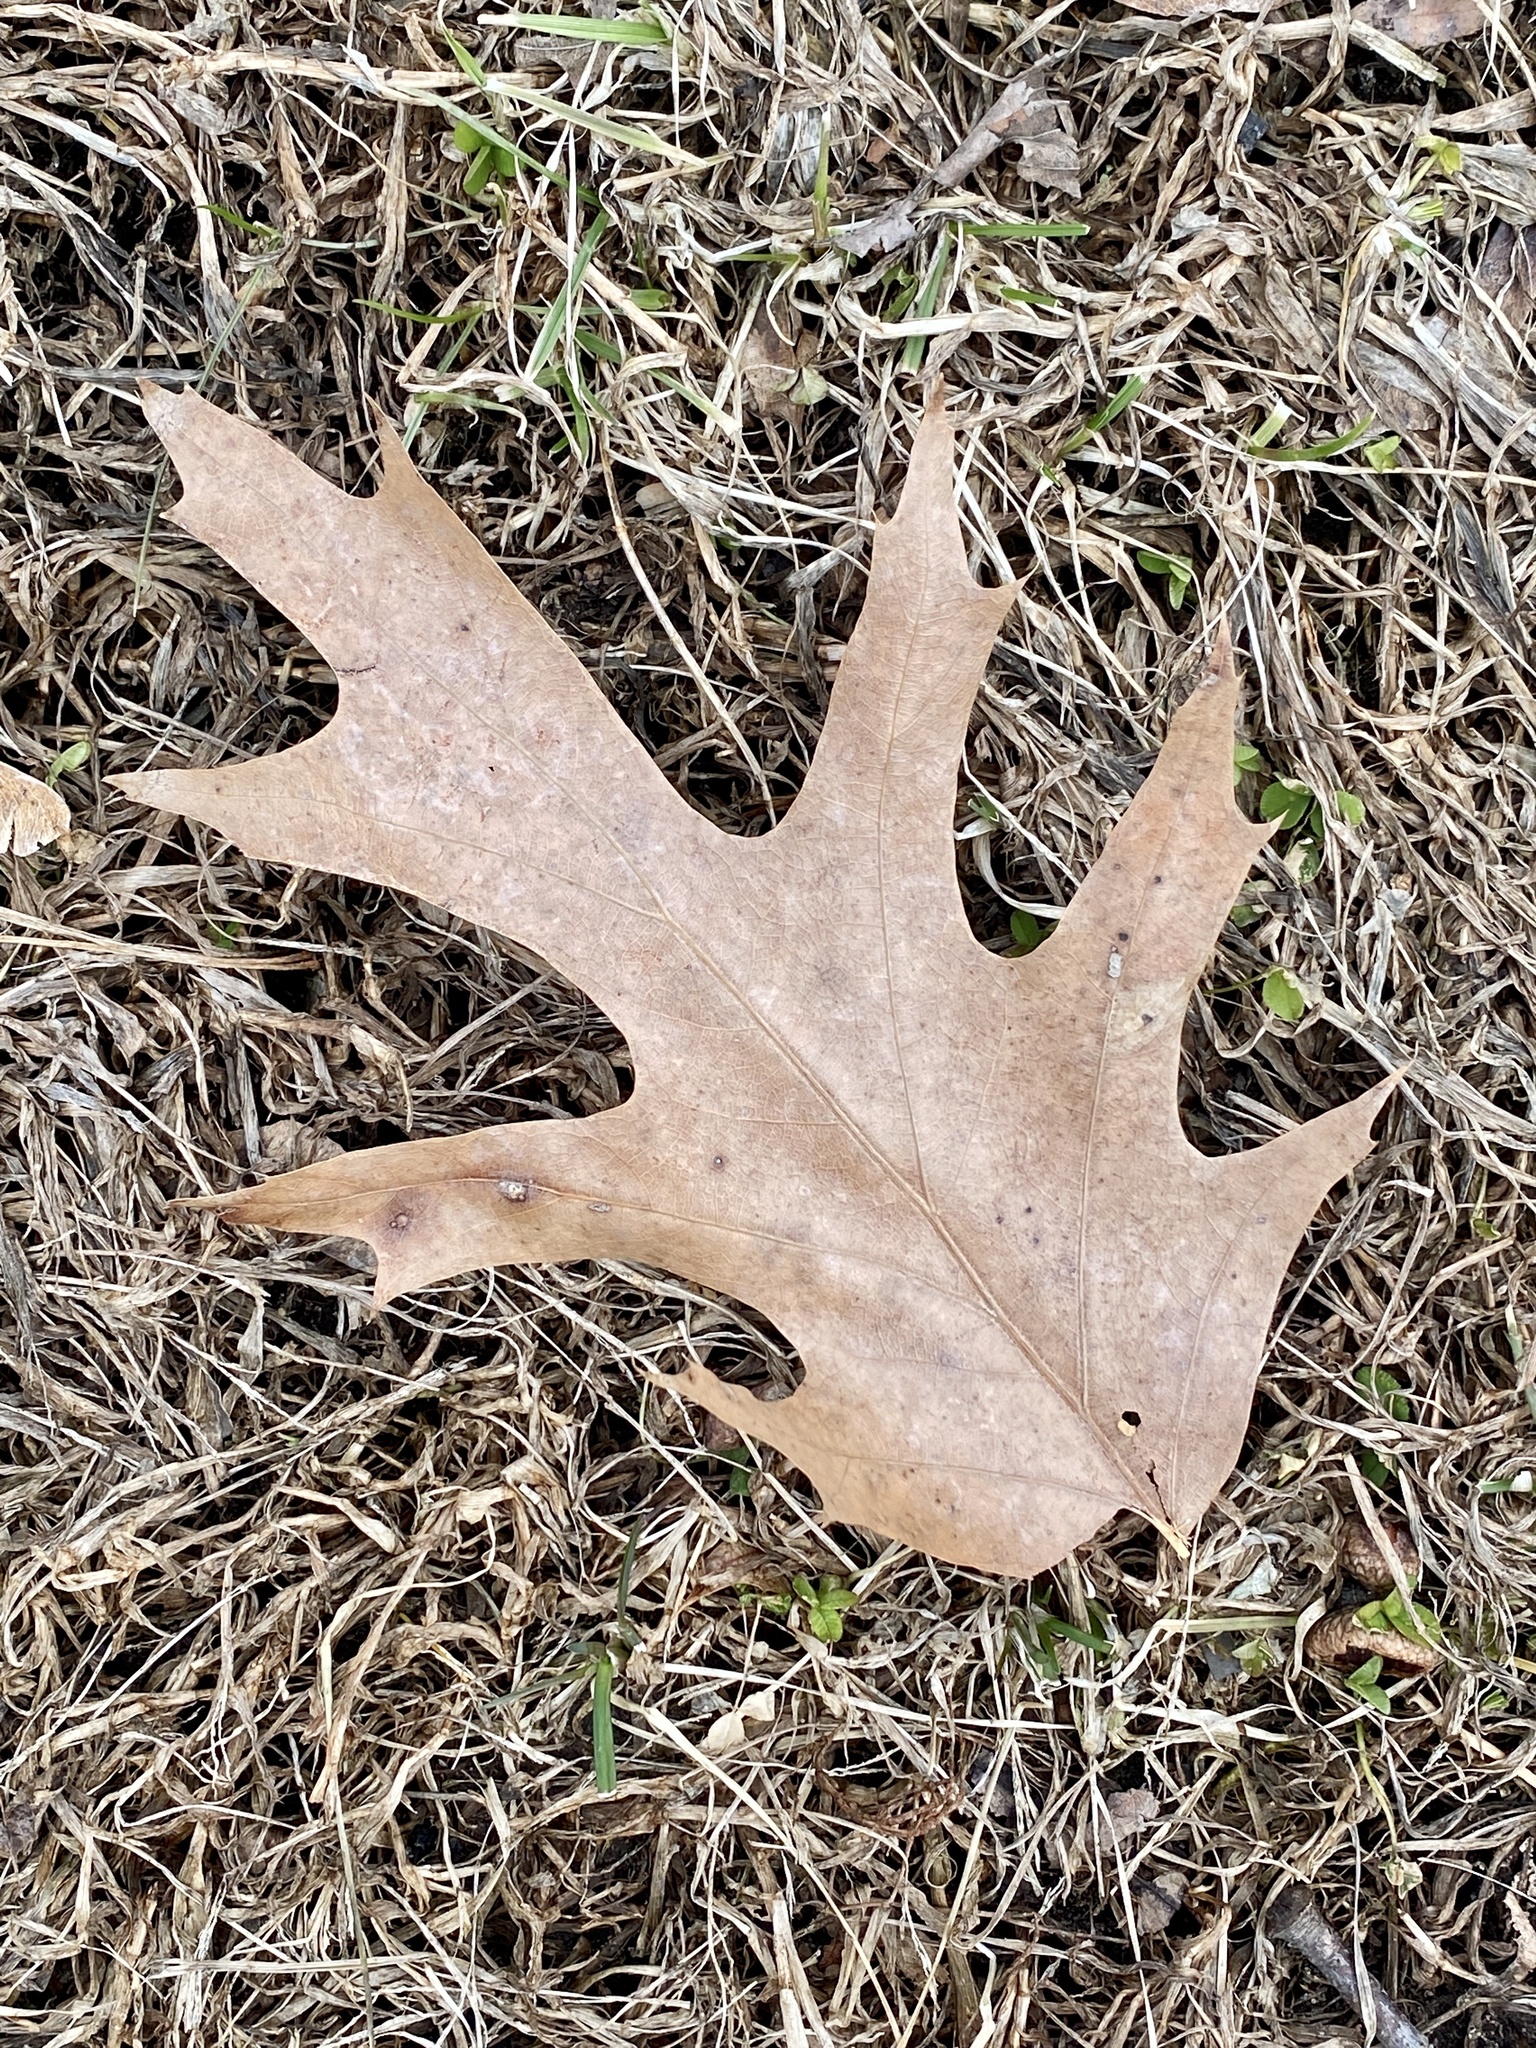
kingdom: Plantae
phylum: Tracheophyta
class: Magnoliopsida
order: Fagales
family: Fagaceae
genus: Quercus
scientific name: Quercus rubra
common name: Red oak
